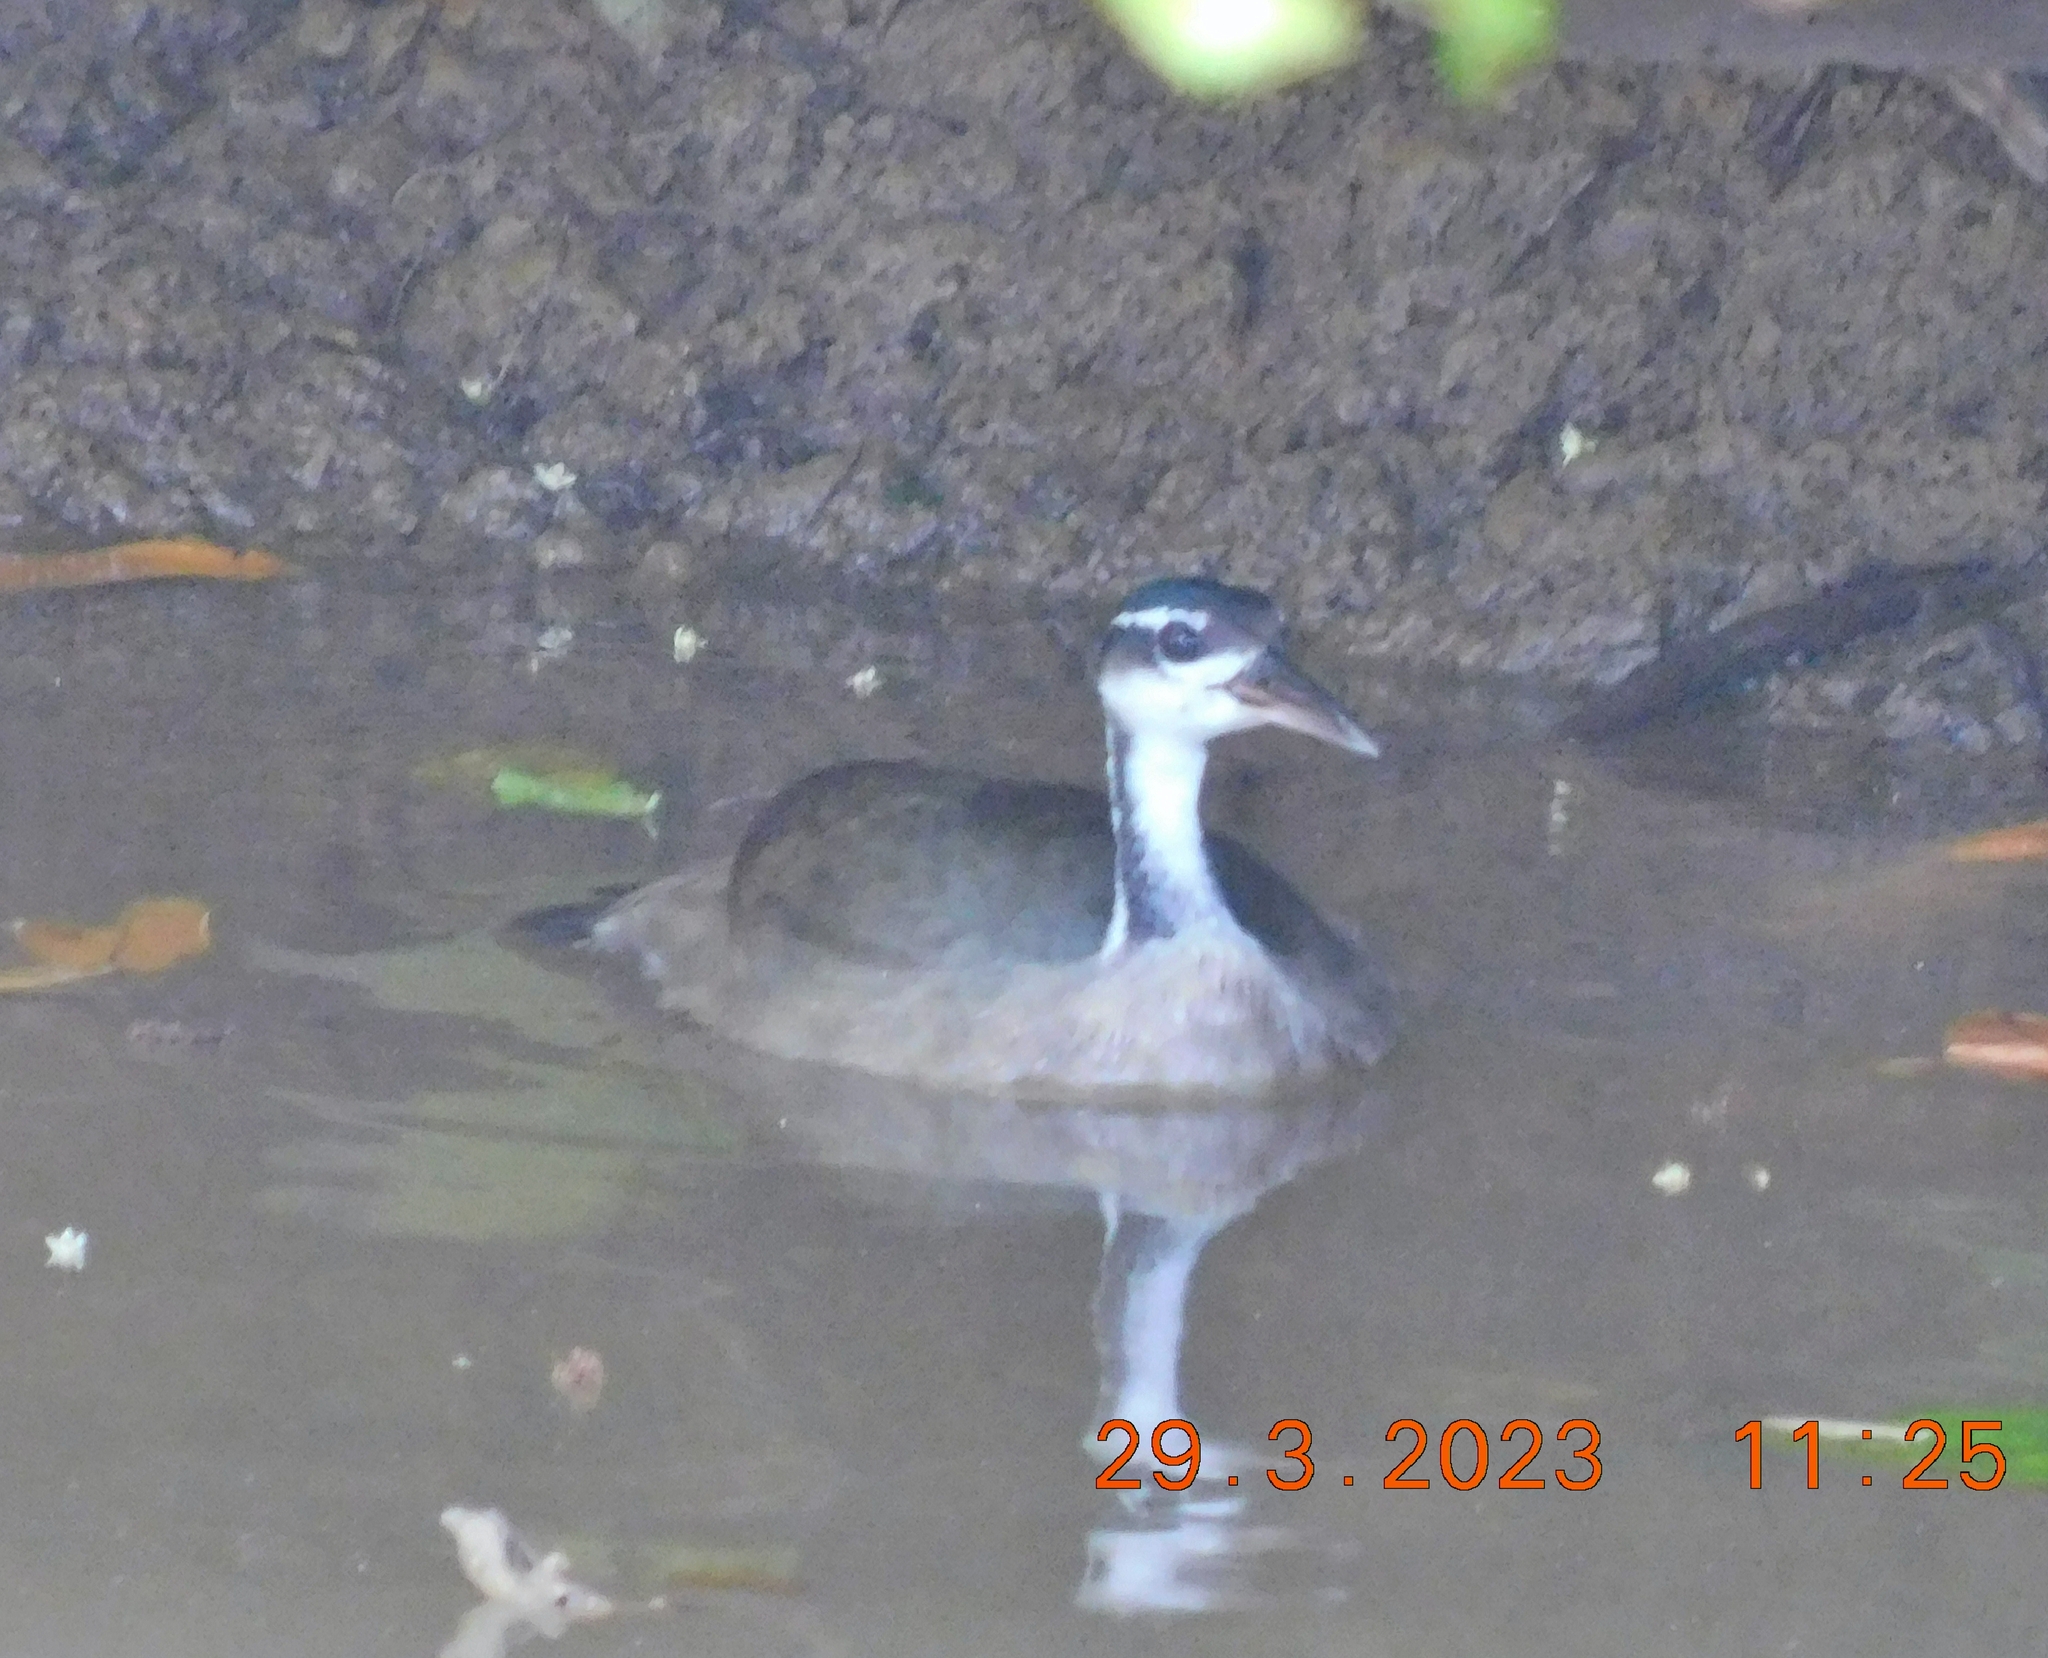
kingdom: Animalia
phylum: Chordata
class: Aves
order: Gruiformes
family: Heliornithidae
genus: Heliornis
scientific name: Heliornis fulica
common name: Sungrebe
